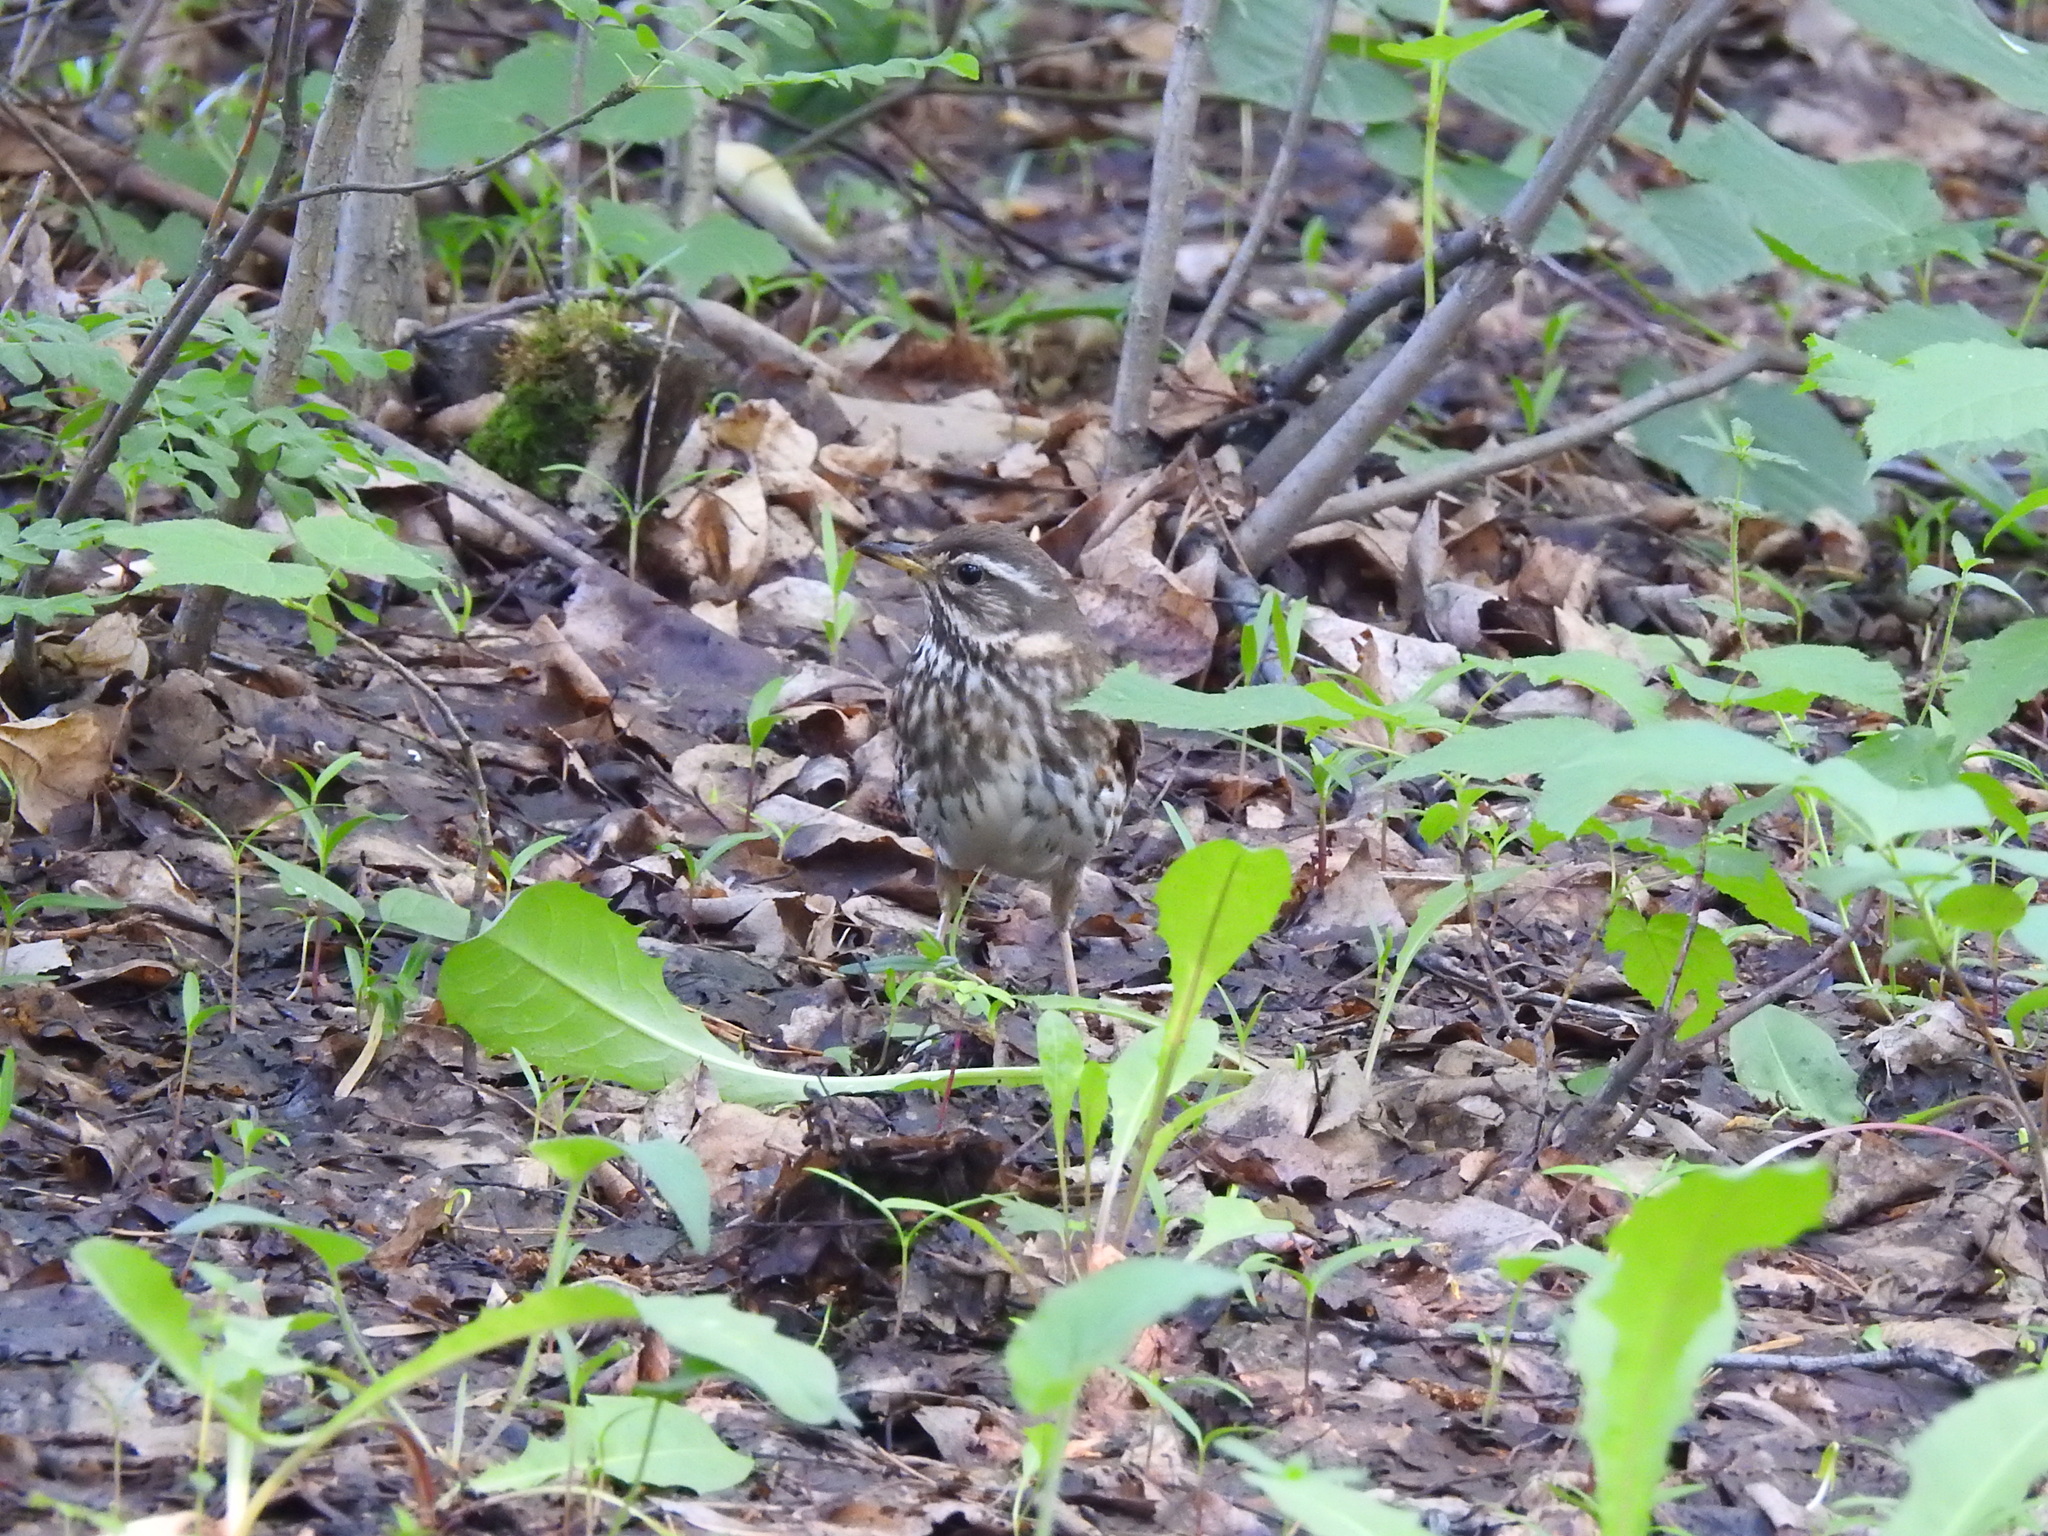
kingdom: Animalia
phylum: Chordata
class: Aves
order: Passeriformes
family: Turdidae
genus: Turdus
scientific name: Turdus iliacus
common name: Redwing
